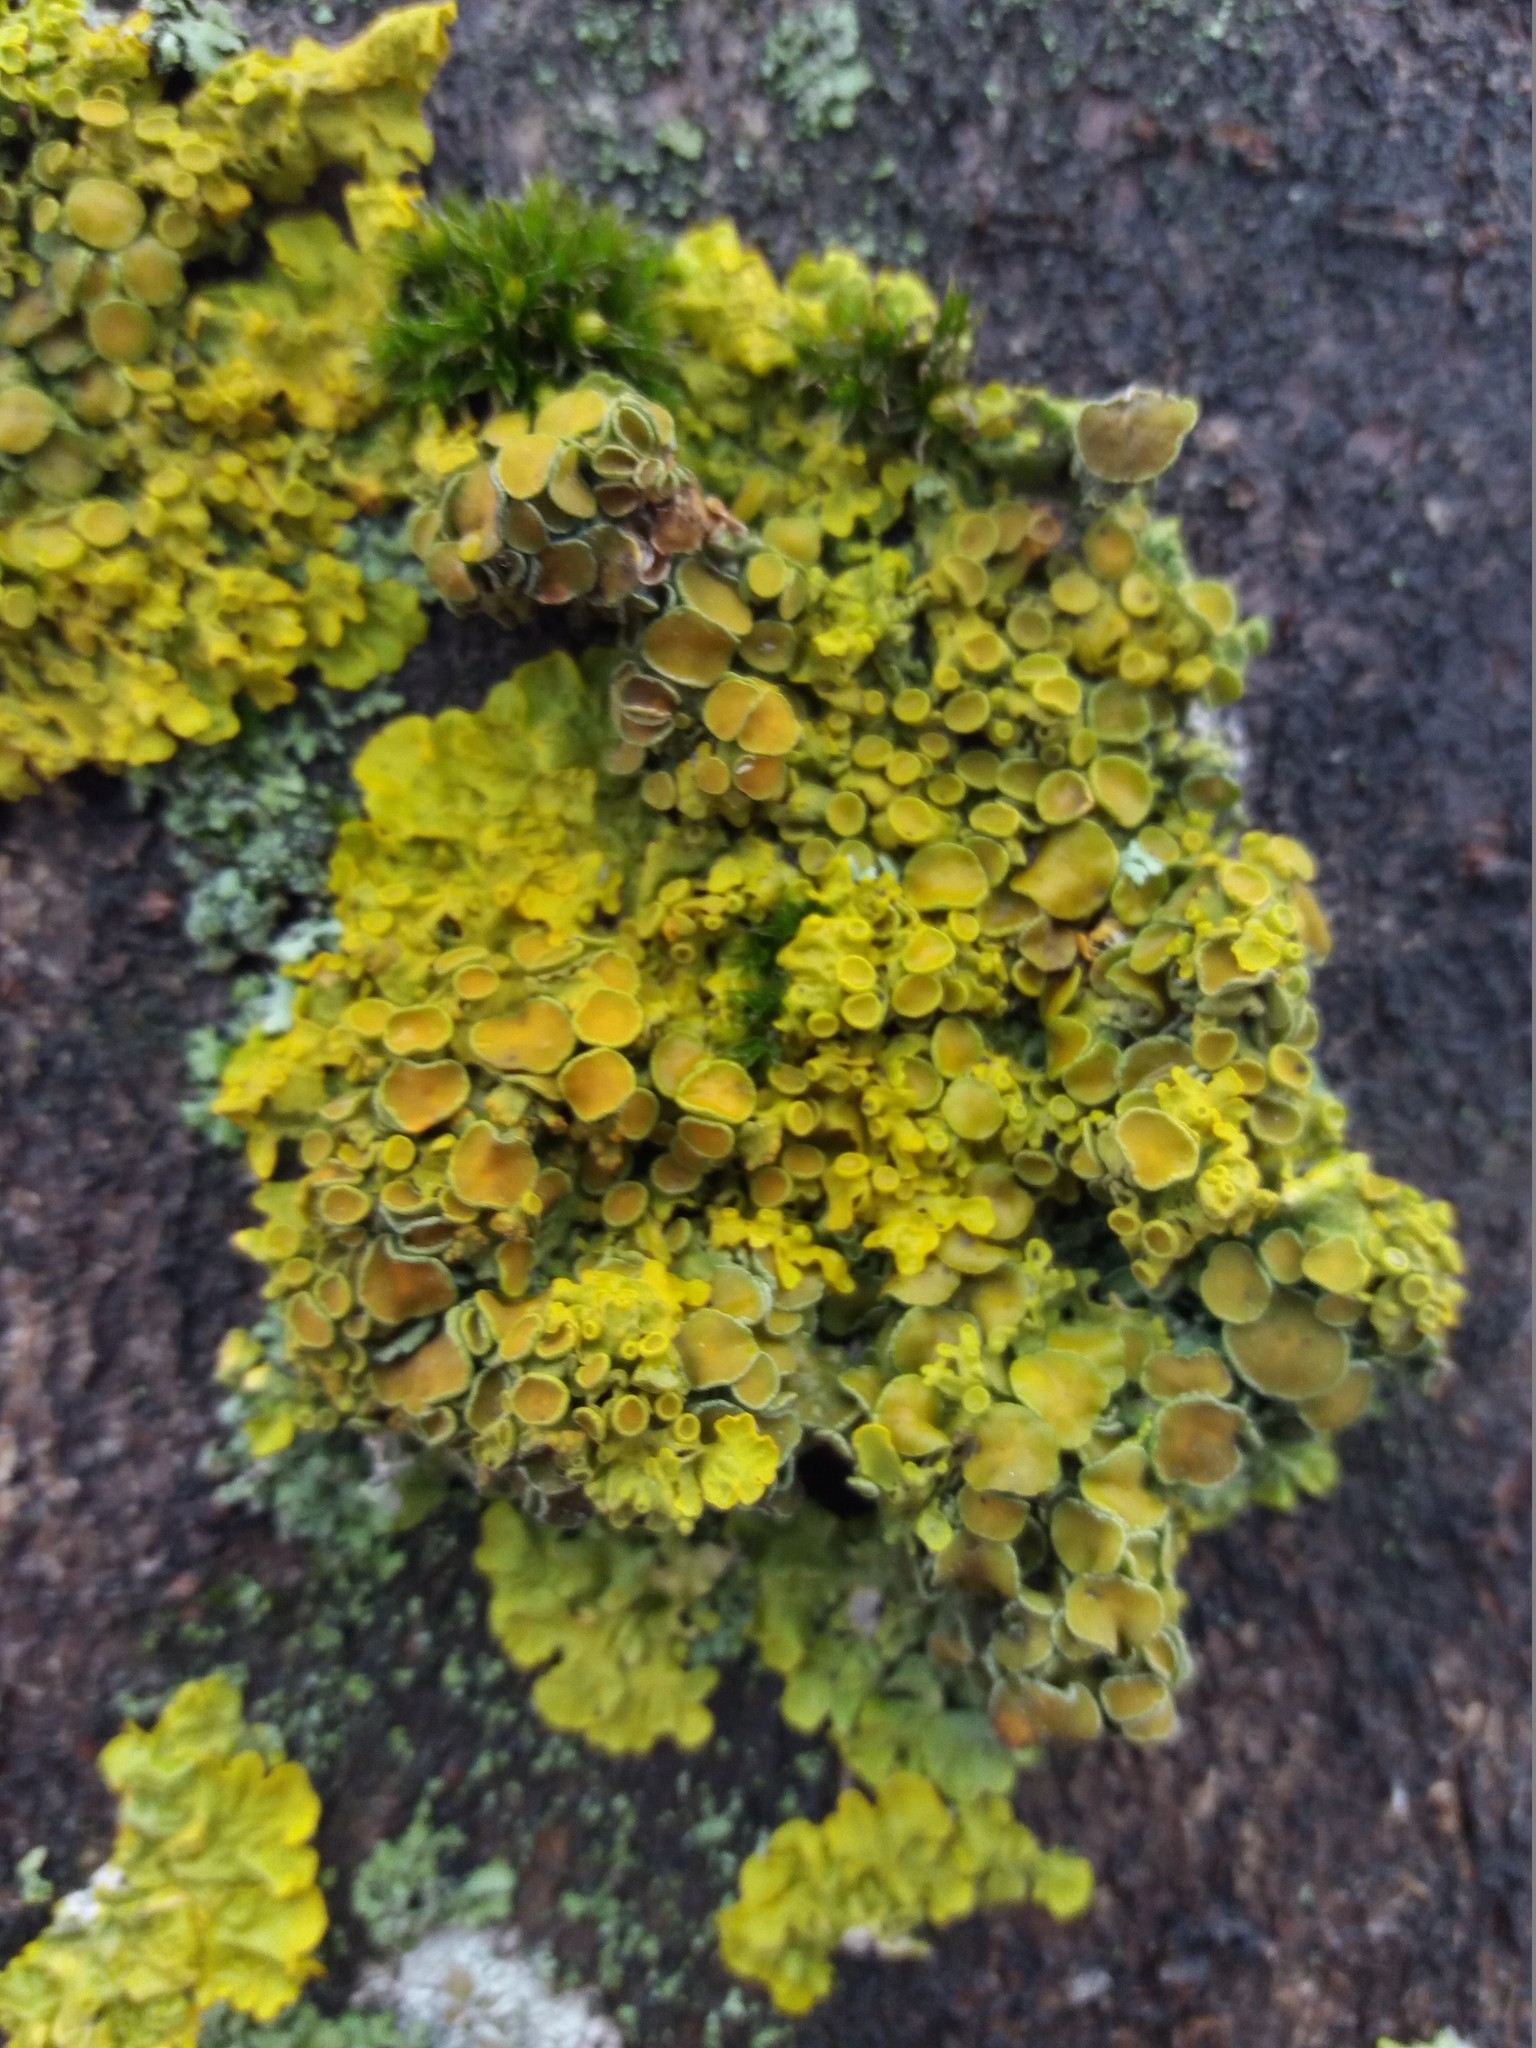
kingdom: Fungi
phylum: Ascomycota
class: Lecanoromycetes
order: Teloschistales
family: Teloschistaceae
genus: Xanthoria
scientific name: Xanthoria parietina
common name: Common orange lichen
